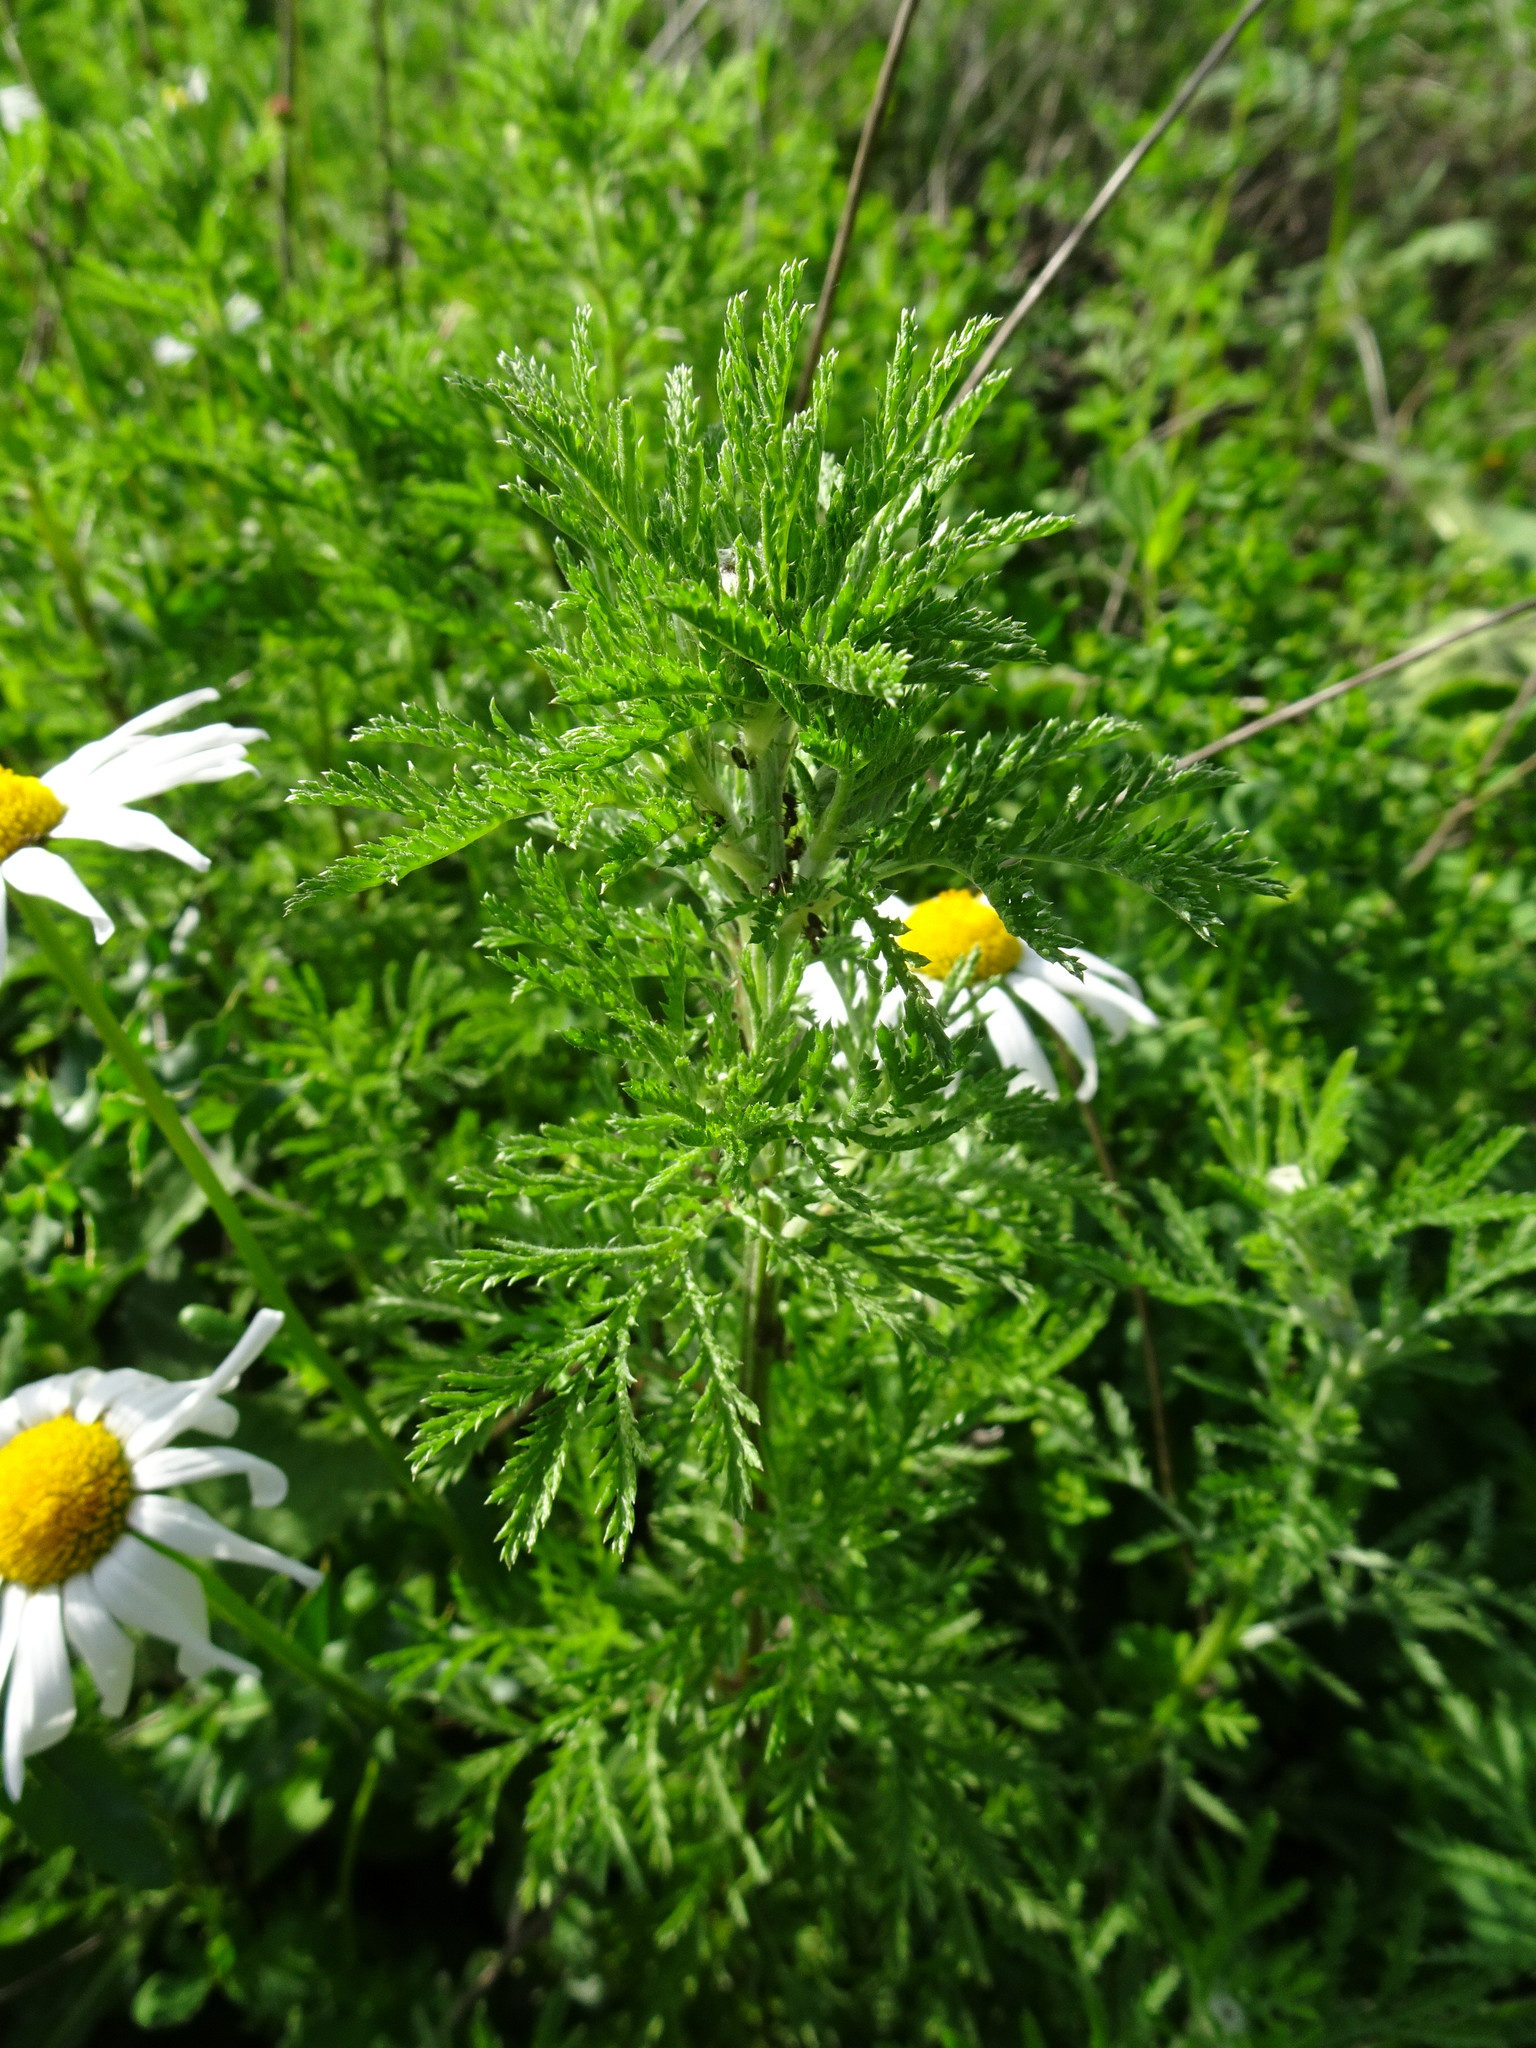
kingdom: Plantae
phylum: Tracheophyta
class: Magnoliopsida
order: Asterales
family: Asteraceae
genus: Anthemis
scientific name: Anthemis arvensis
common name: Corn chamomile
